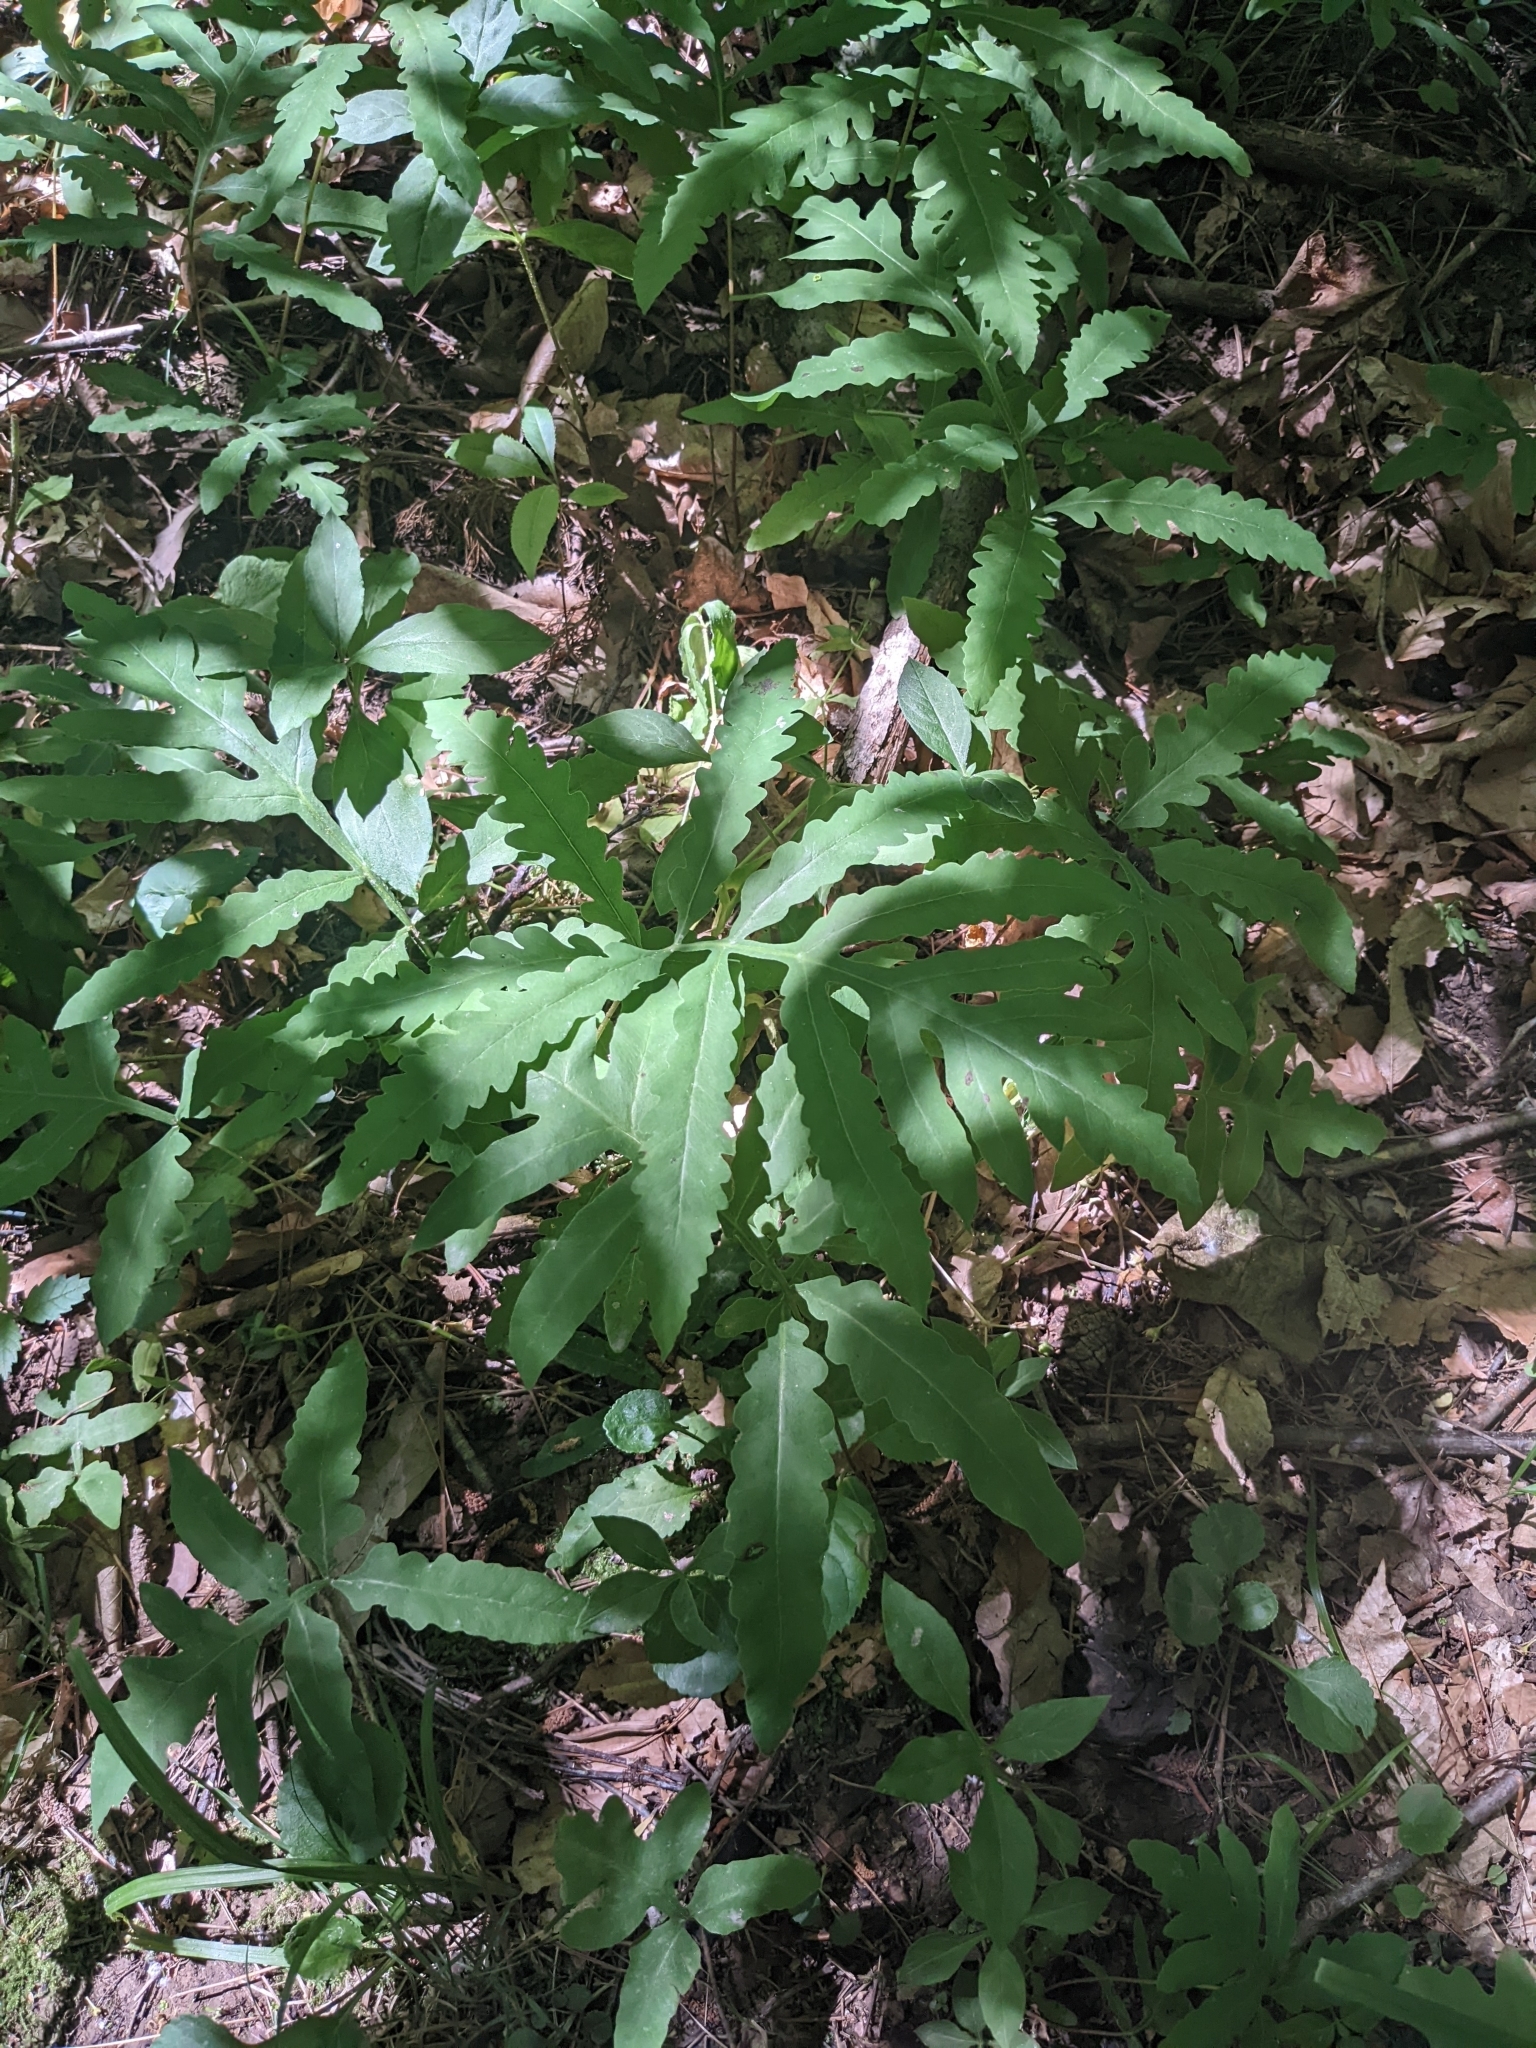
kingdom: Plantae
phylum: Tracheophyta
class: Polypodiopsida
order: Polypodiales
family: Onocleaceae
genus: Onoclea
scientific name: Onoclea sensibilis
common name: Sensitive fern
